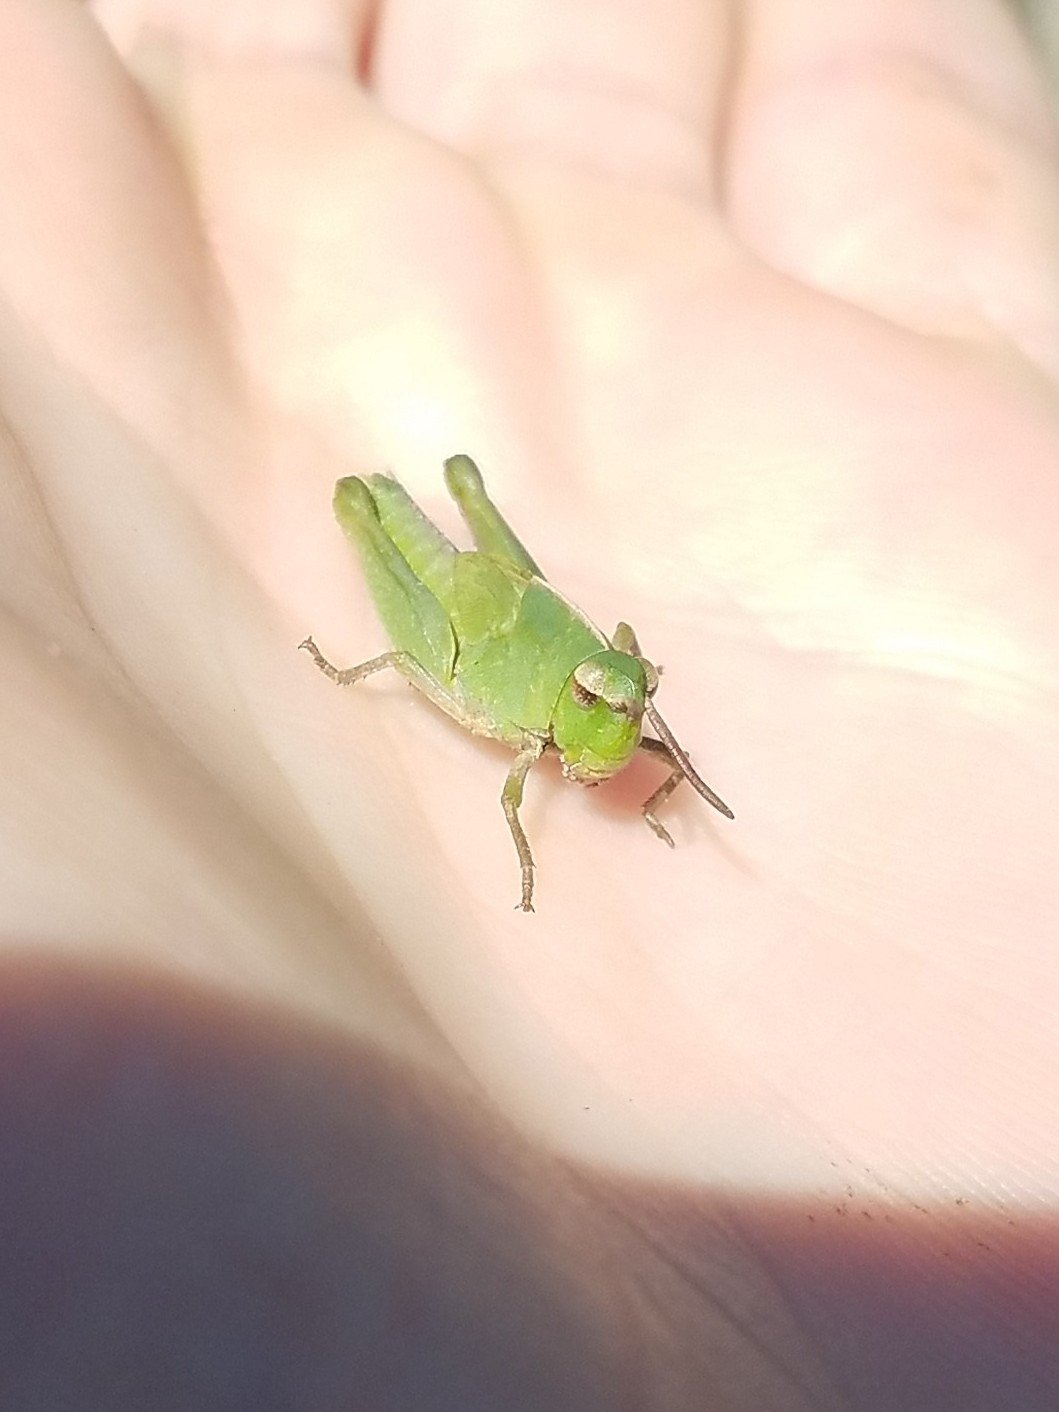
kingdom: Animalia
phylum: Arthropoda
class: Insecta
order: Orthoptera
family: Acrididae
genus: Chortophaga
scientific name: Chortophaga viridifasciata
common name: Green-striped grasshopper
